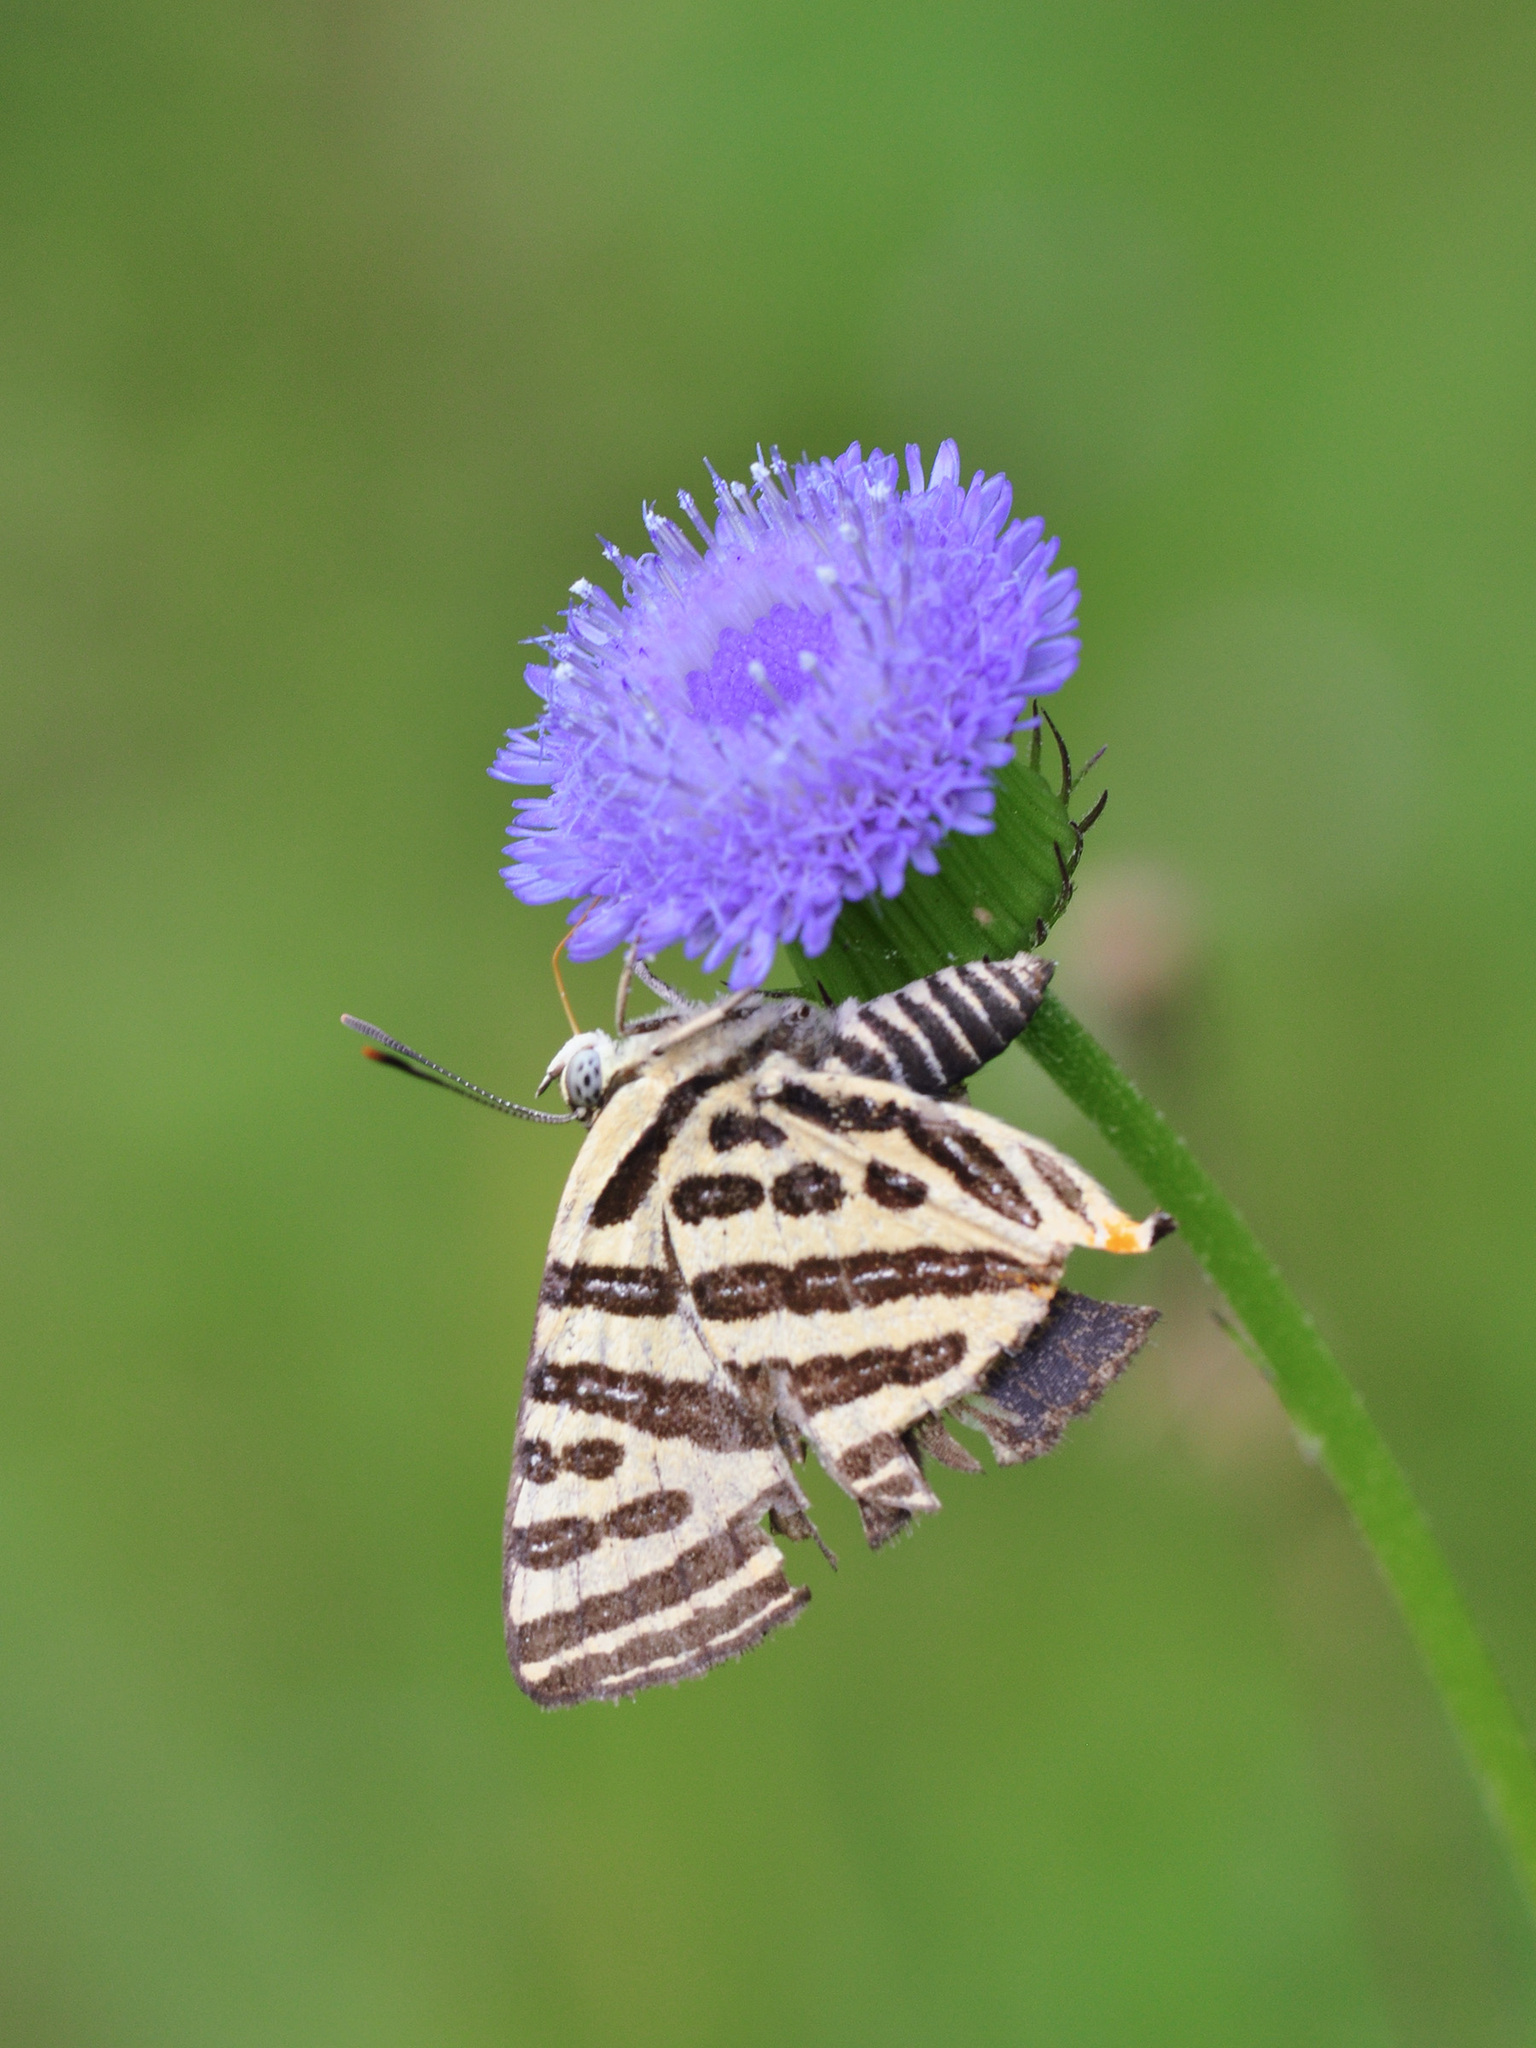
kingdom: Animalia
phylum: Arthropoda
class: Insecta
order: Lepidoptera
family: Lycaenidae
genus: Cigaritis
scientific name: Cigaritis syama
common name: Club silverline
